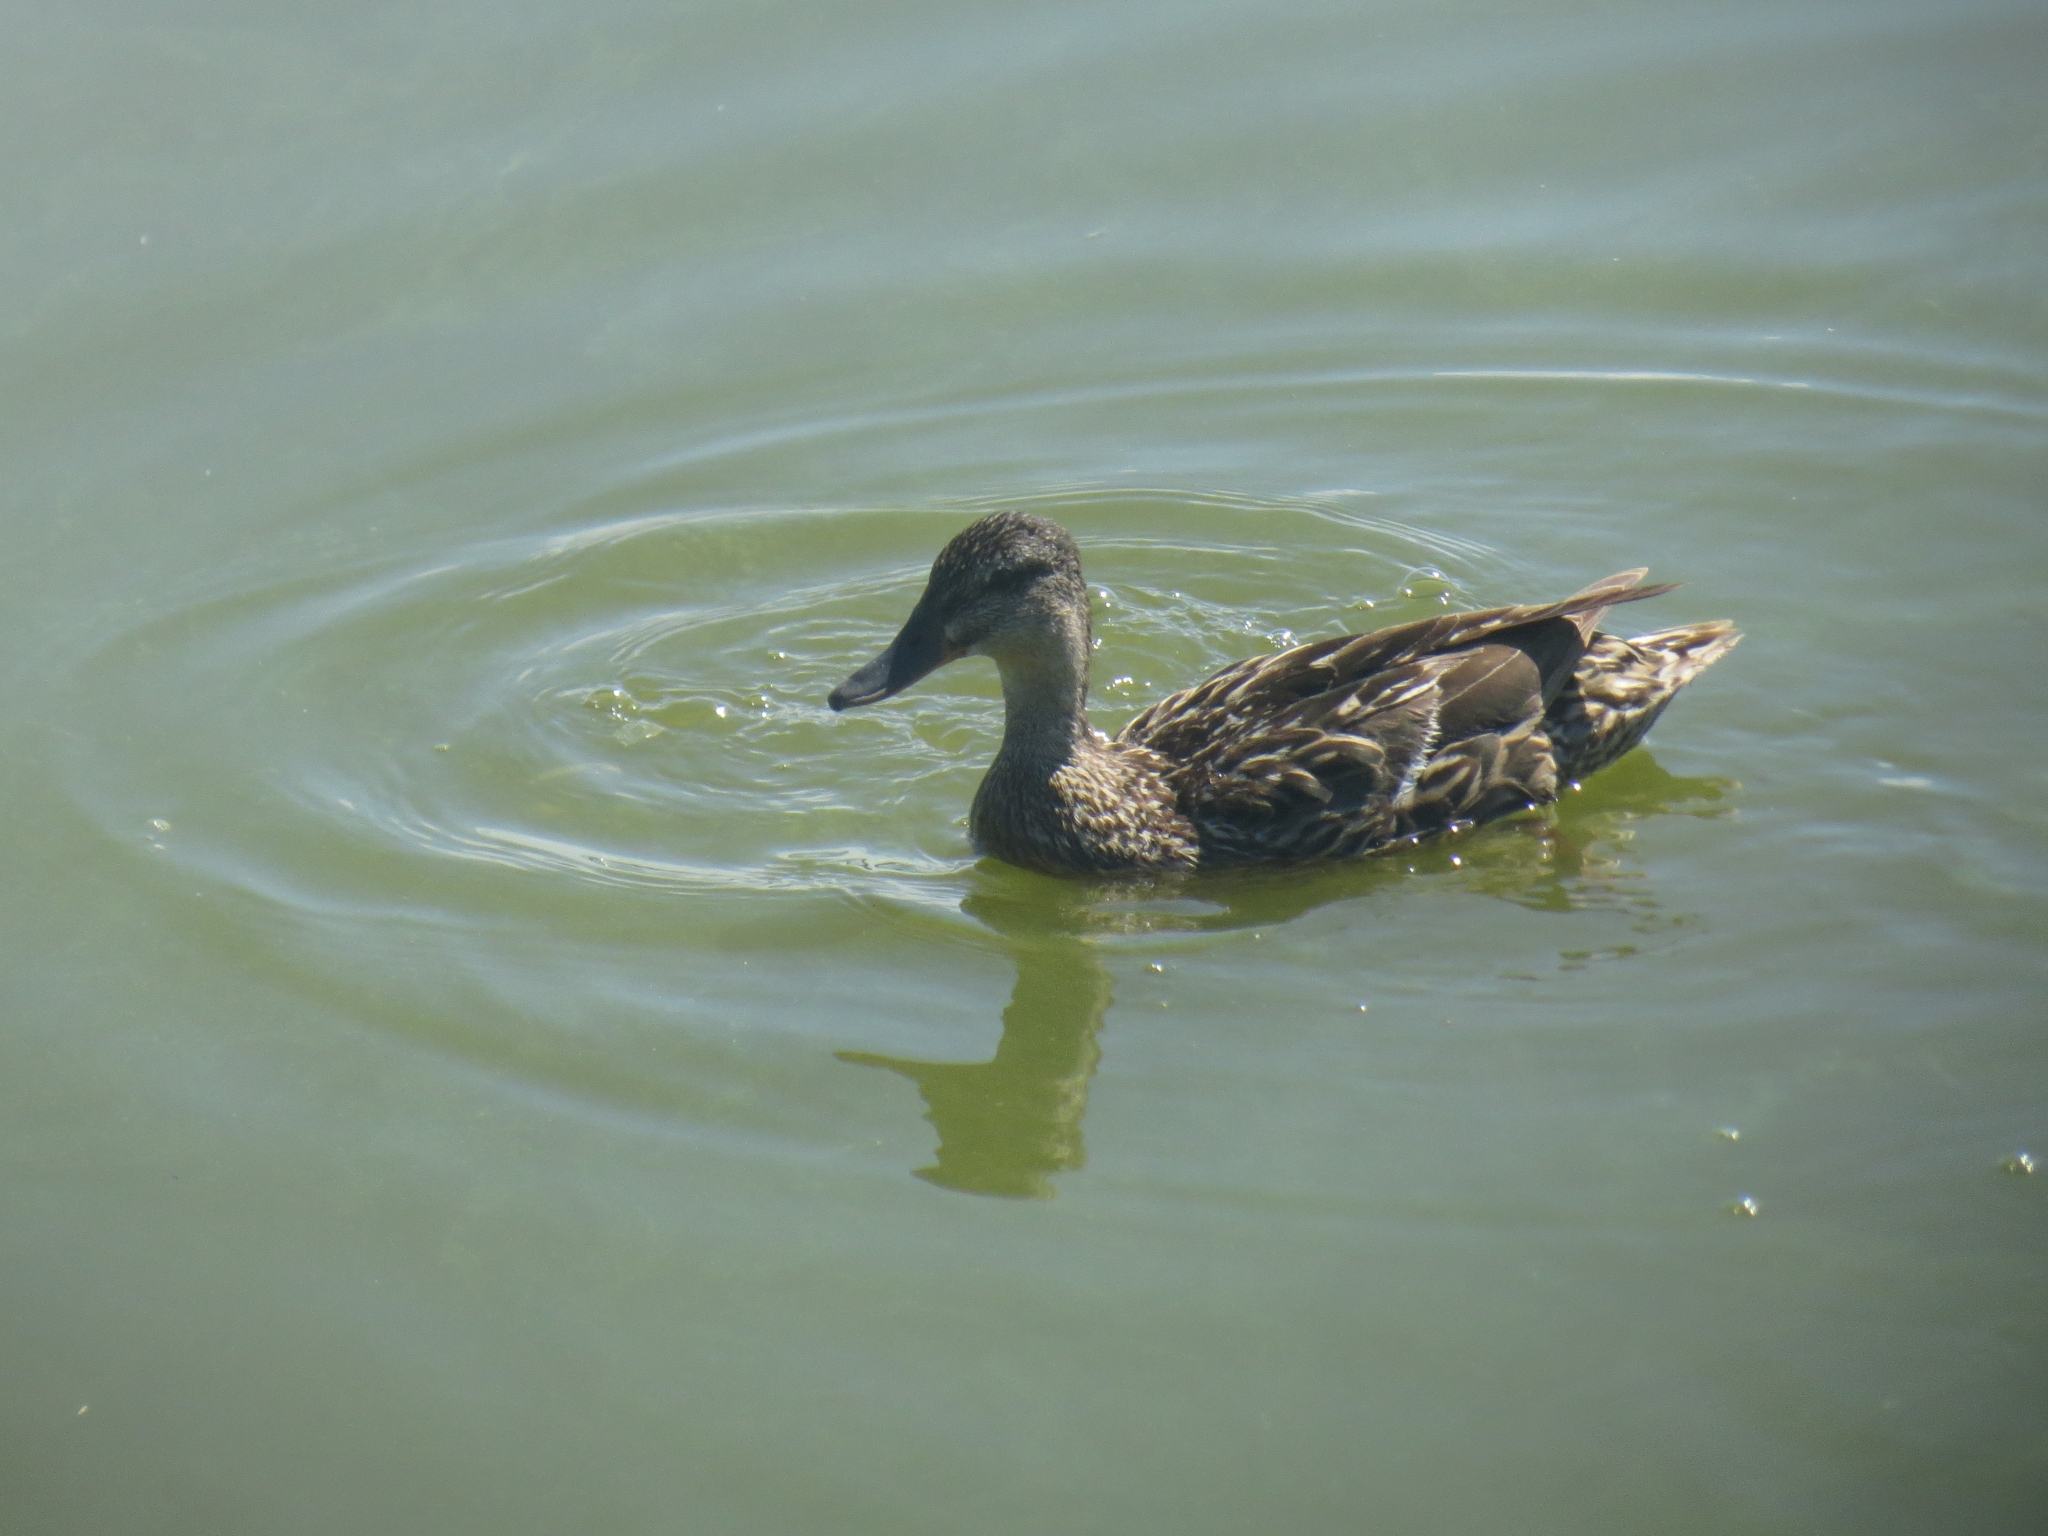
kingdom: Animalia
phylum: Chordata
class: Aves
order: Anseriformes
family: Anatidae
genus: Anas
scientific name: Anas platyrhynchos
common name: Mallard
